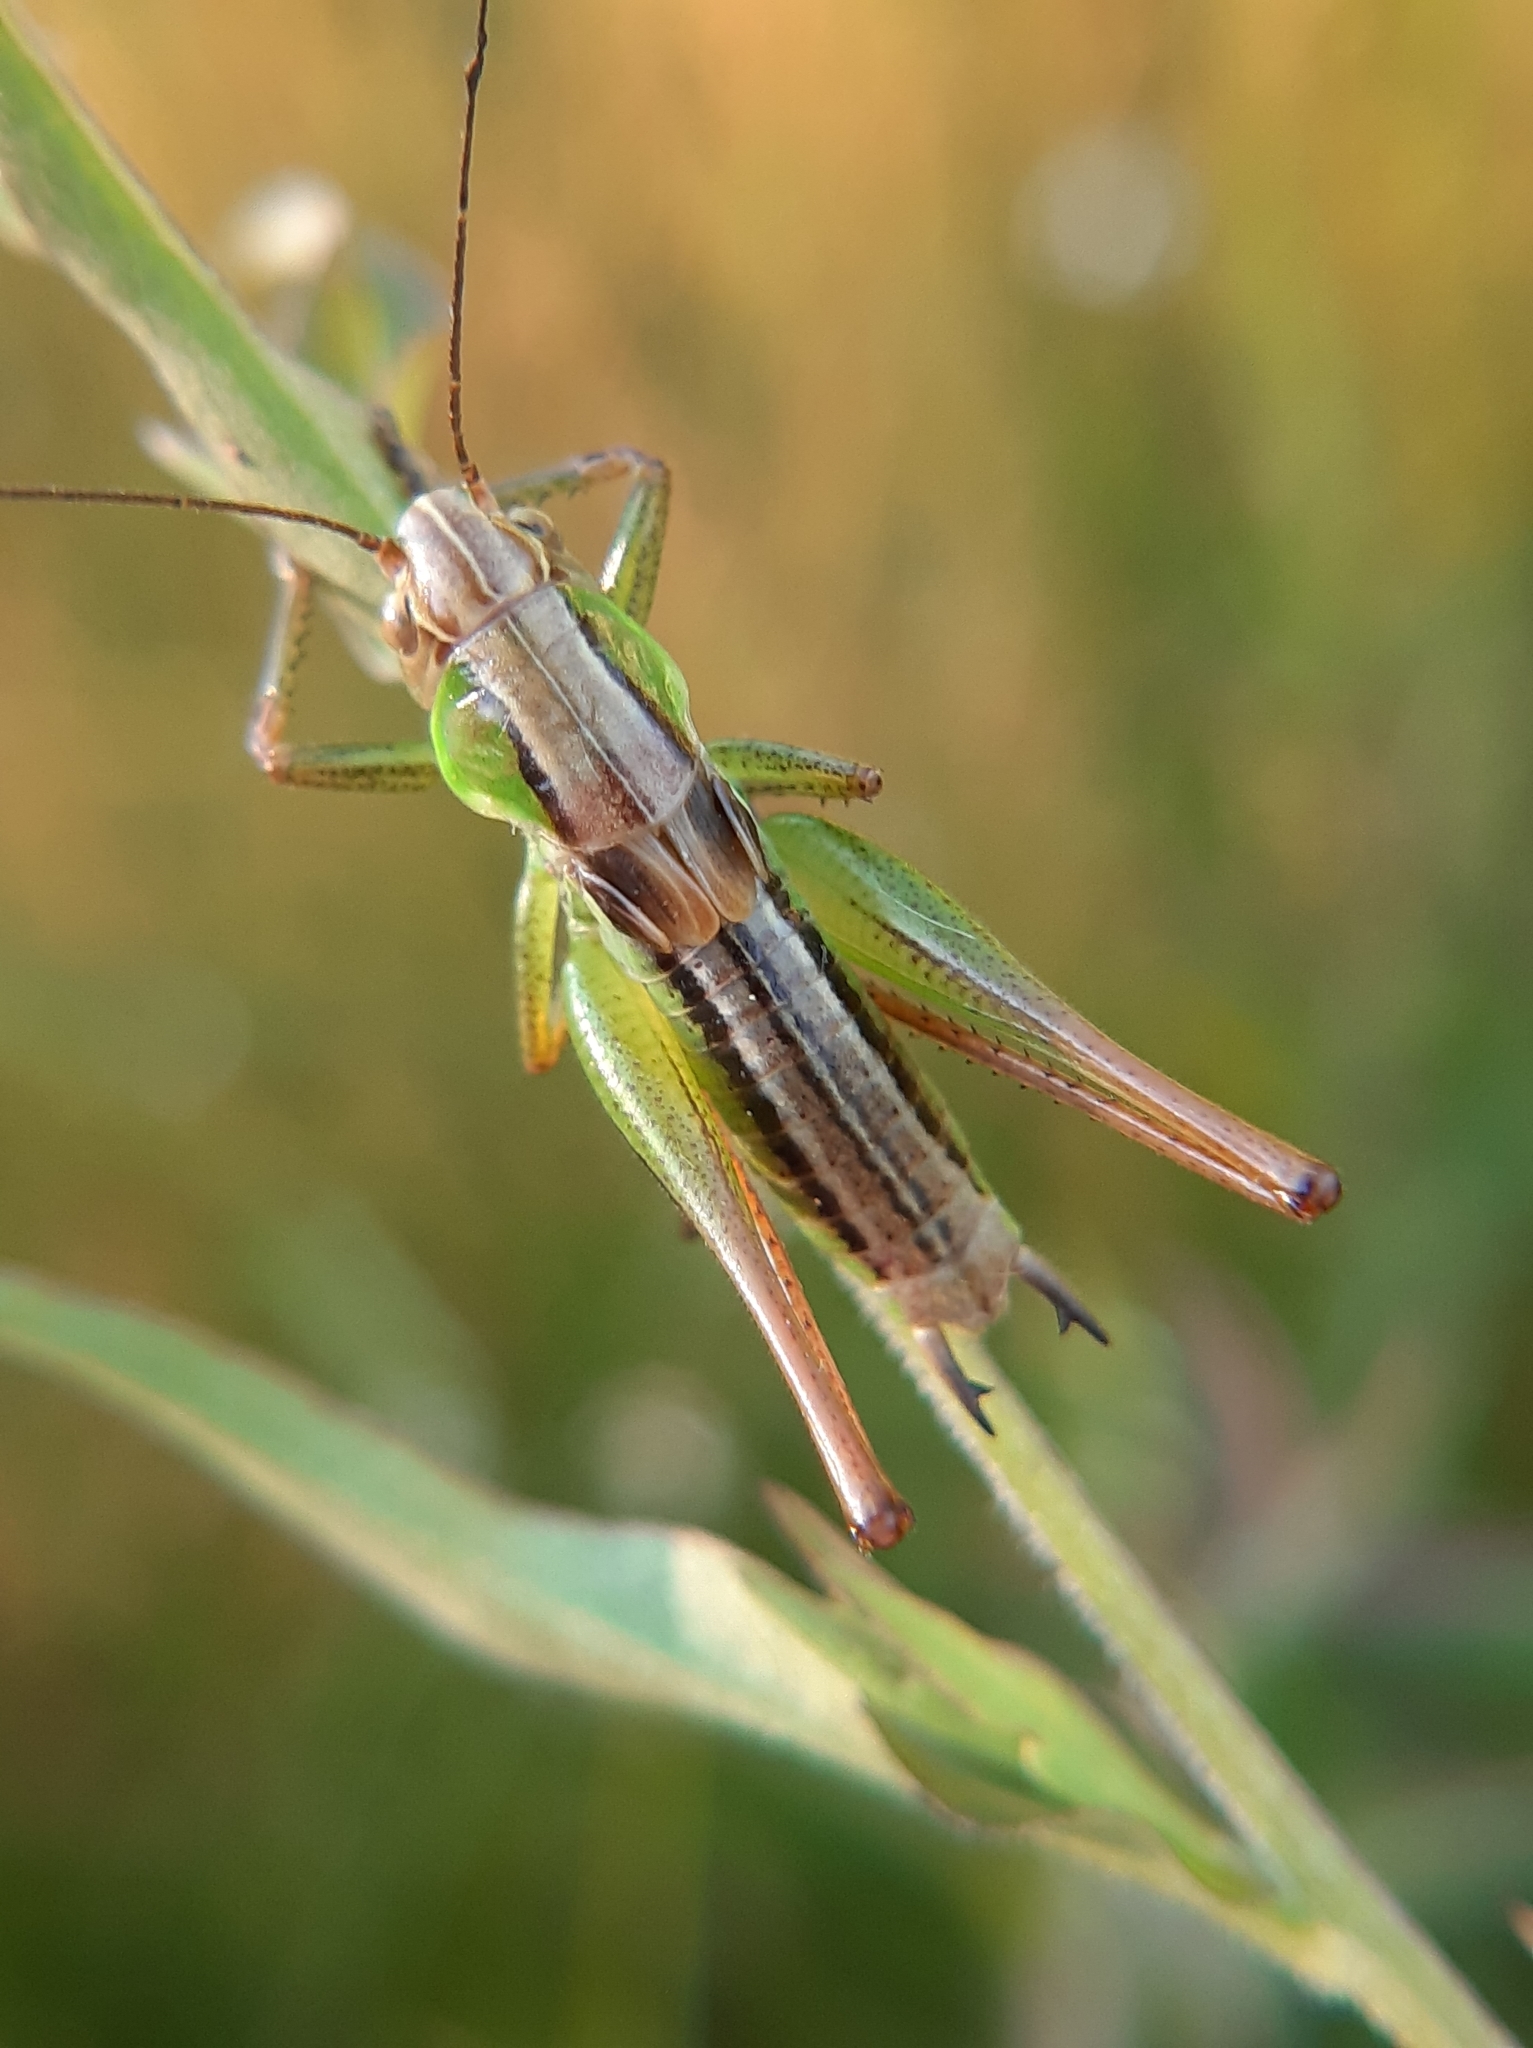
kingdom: Animalia
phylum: Arthropoda
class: Insecta
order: Orthoptera
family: Tettigoniidae
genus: Roeseliana
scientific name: Roeseliana roeselii
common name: Roesel's bush cricket
